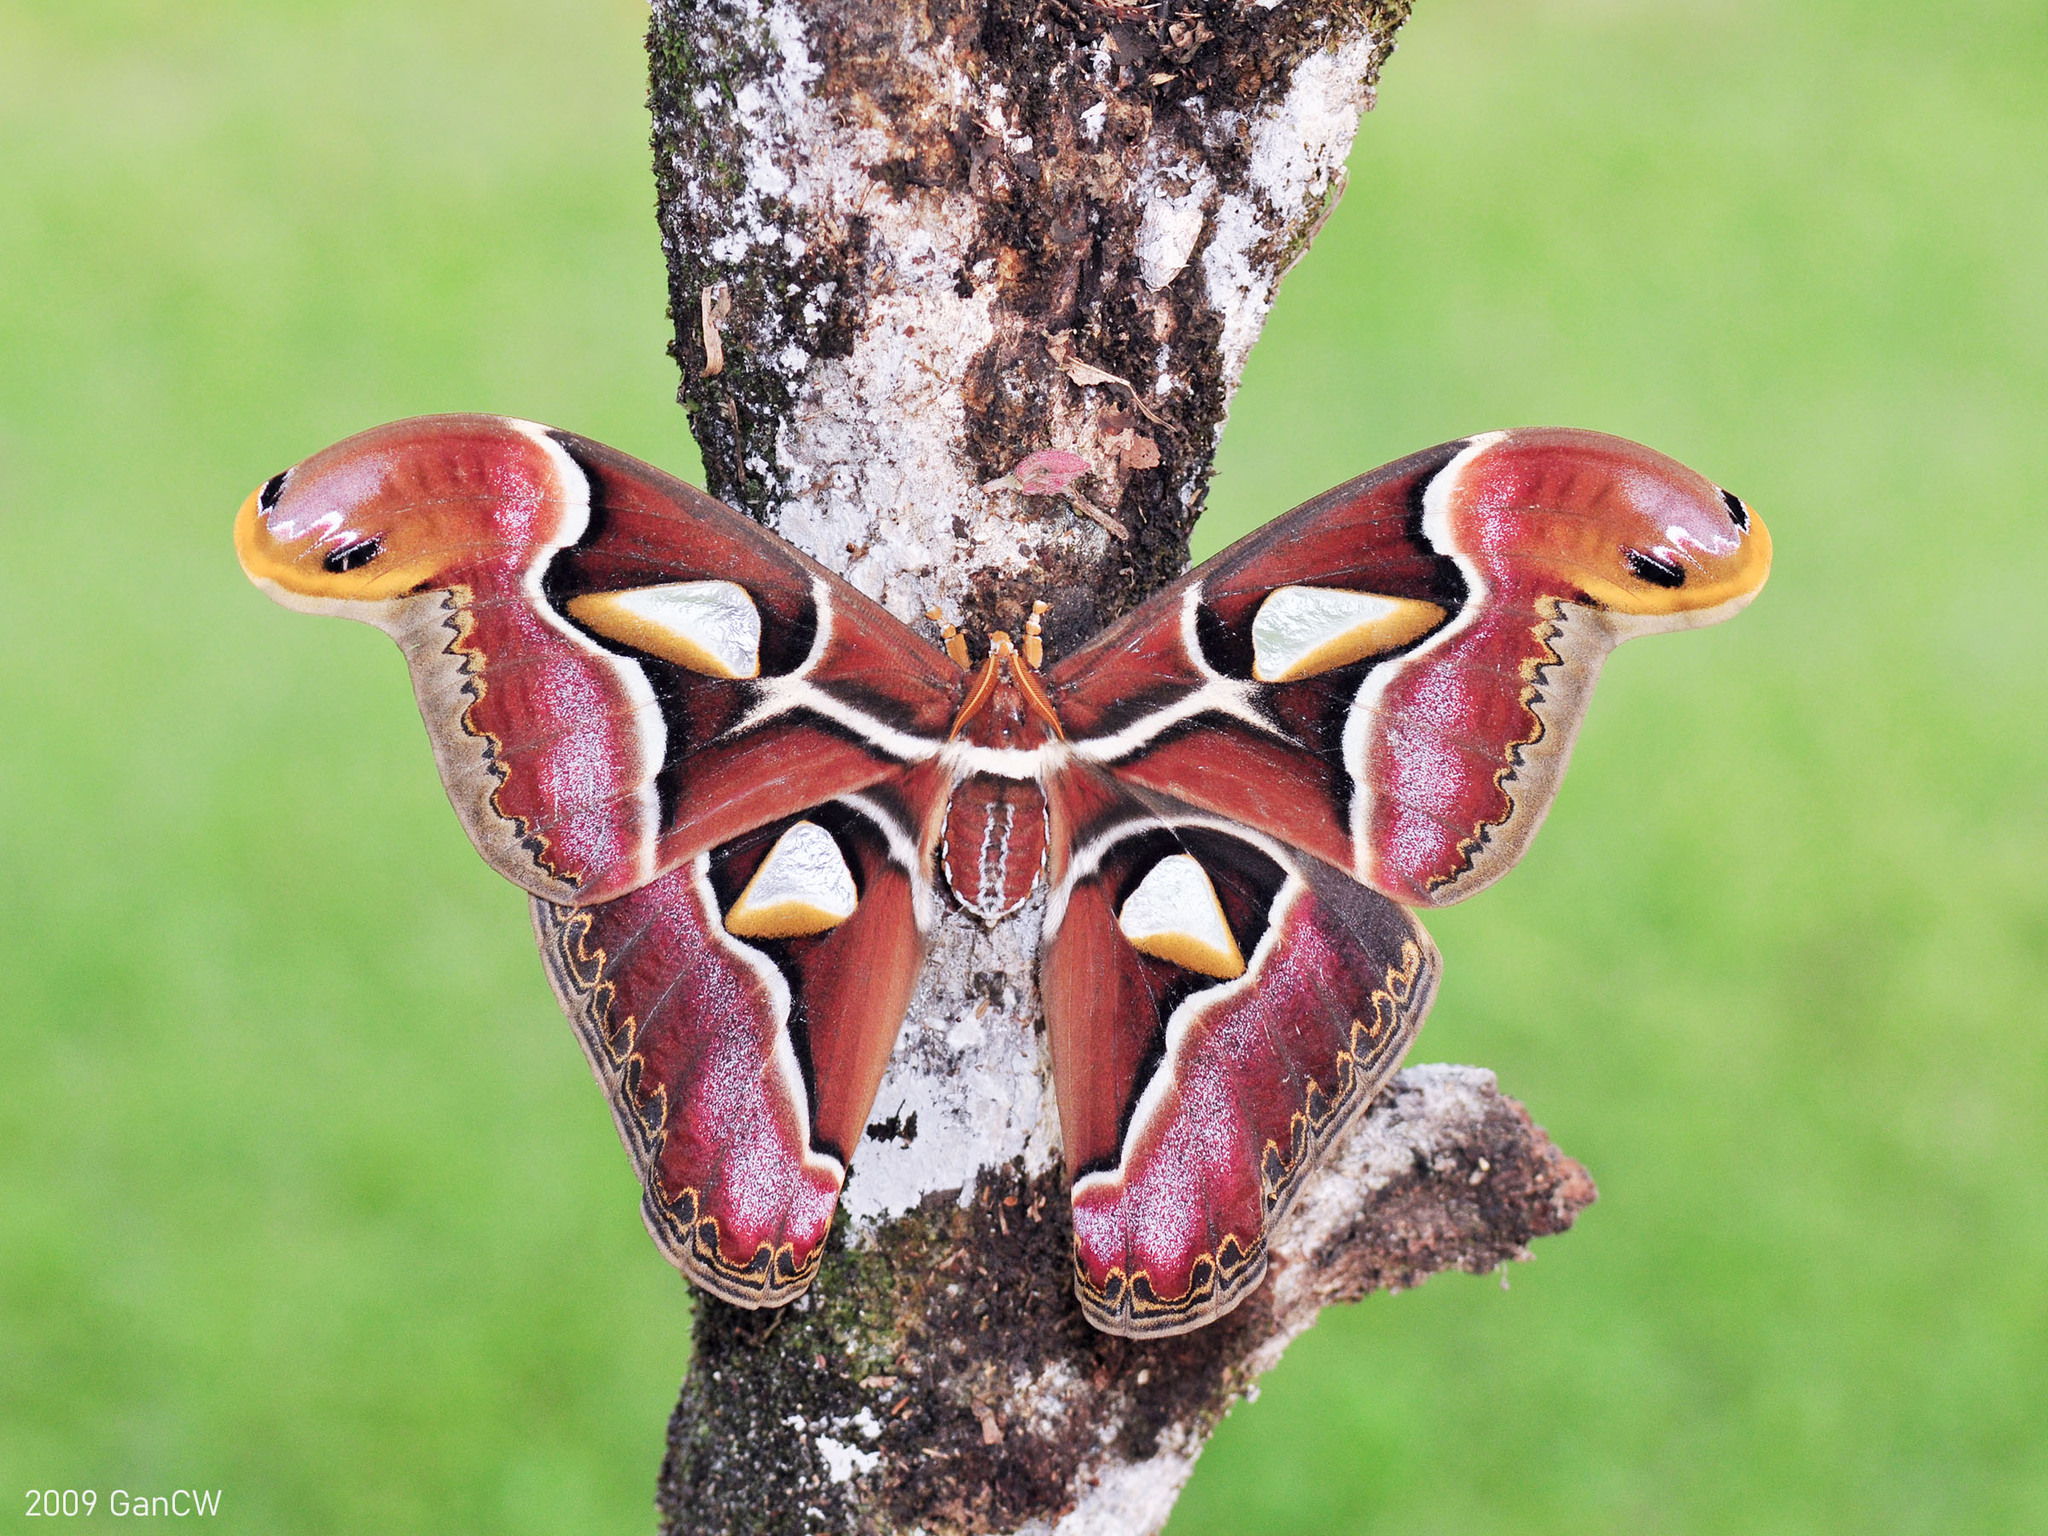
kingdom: Animalia
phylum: Arthropoda
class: Insecta
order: Lepidoptera
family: Saturniidae
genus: Archaeoattacus
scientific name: Archaeoattacus edwardsii
